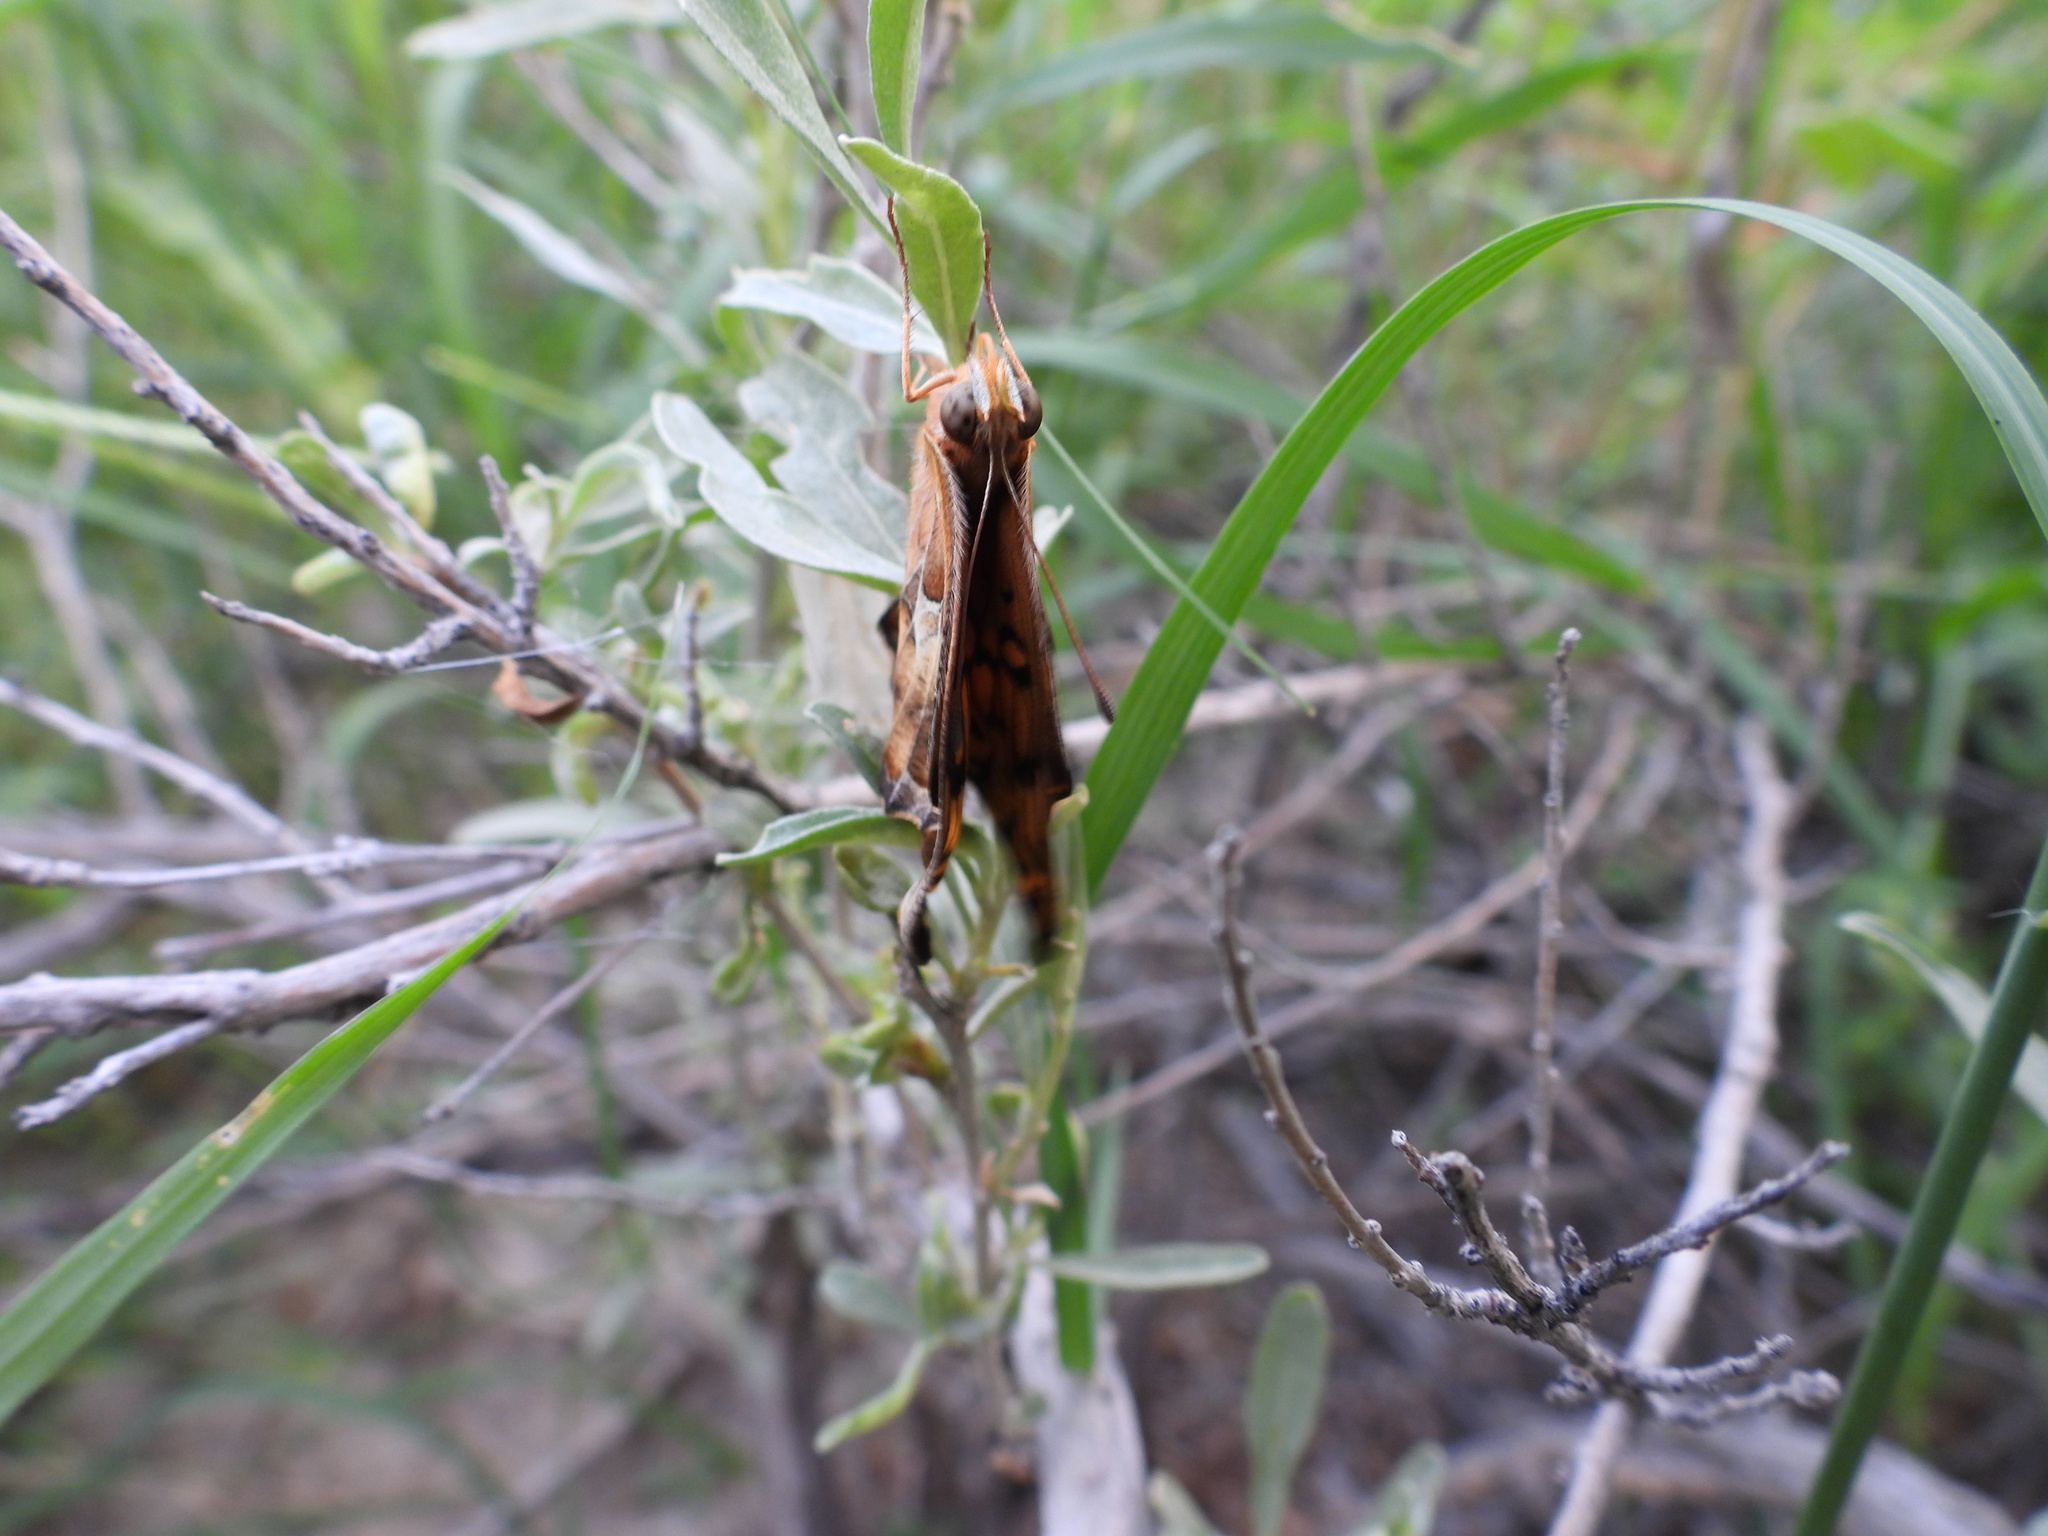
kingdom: Animalia
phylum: Arthropoda
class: Insecta
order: Lepidoptera
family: Nymphalidae
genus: Euptoieta
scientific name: Euptoieta claudia
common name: Variegated fritillary
